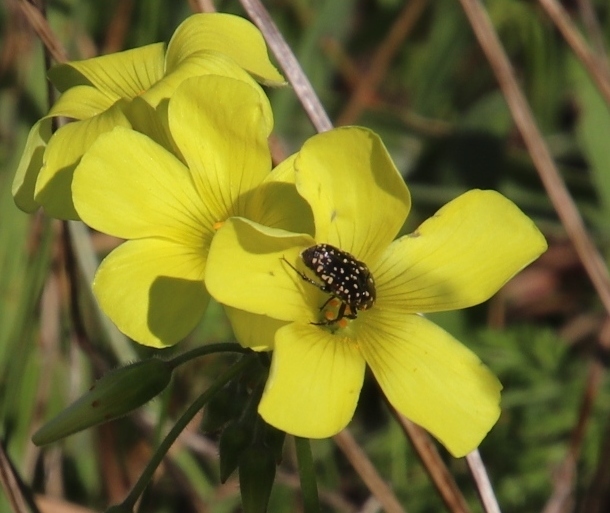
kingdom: Plantae
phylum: Tracheophyta
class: Magnoliopsida
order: Oxalidales
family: Oxalidaceae
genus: Oxalis
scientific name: Oxalis pes-caprae
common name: Bermuda-buttercup
